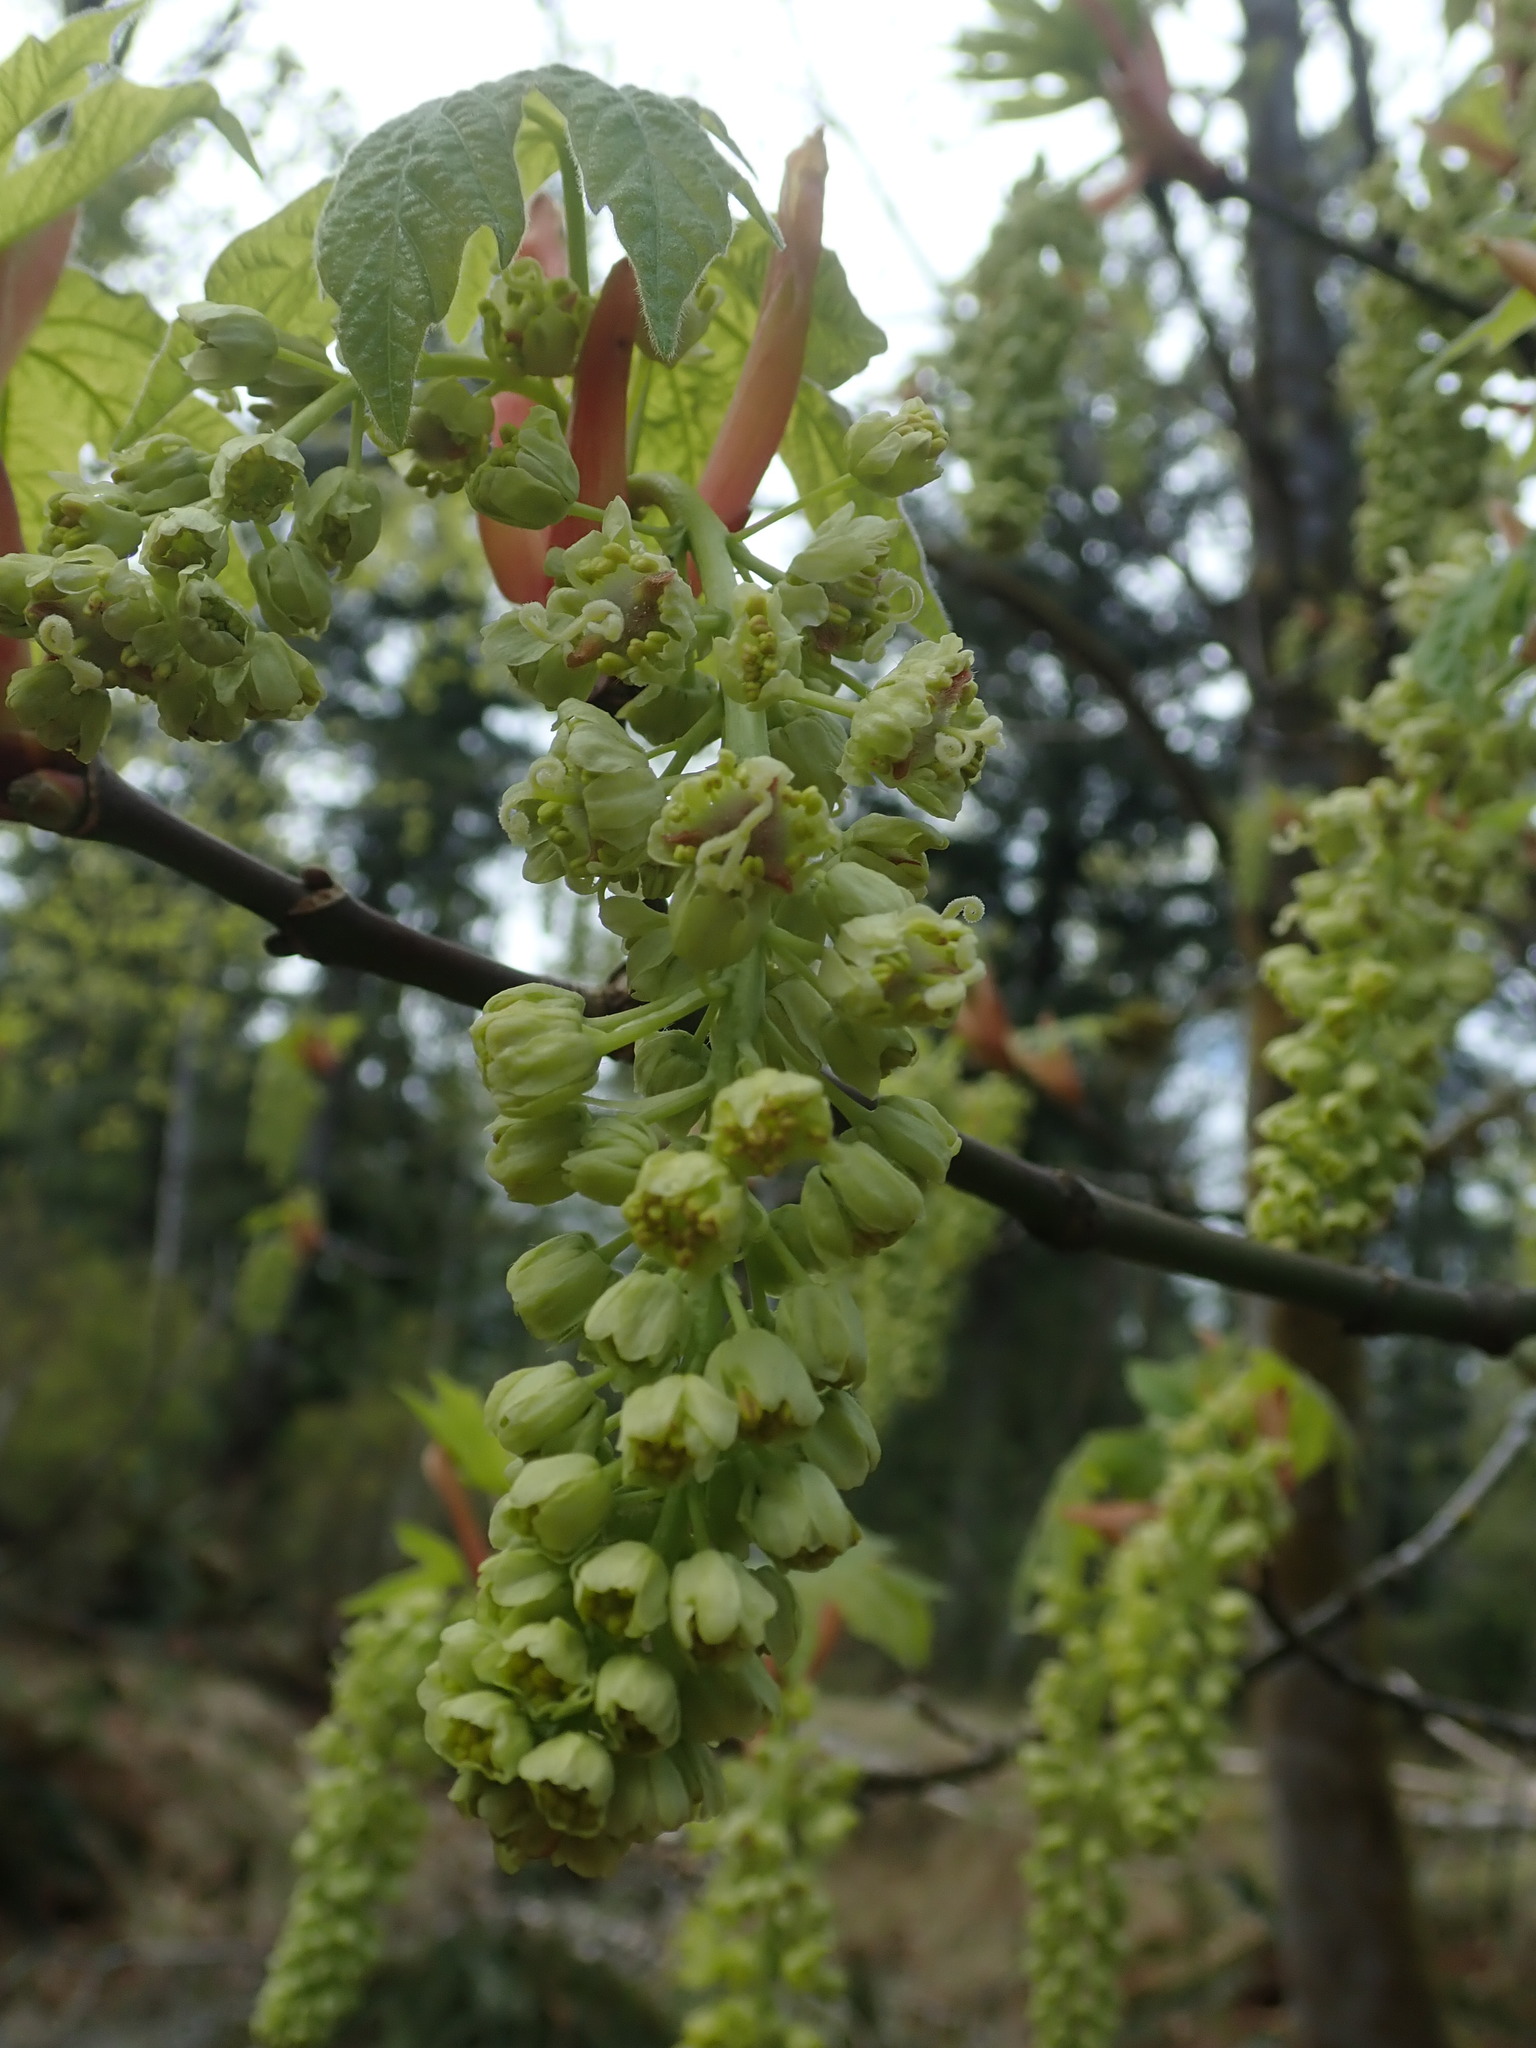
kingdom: Plantae
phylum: Tracheophyta
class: Magnoliopsida
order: Sapindales
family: Sapindaceae
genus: Acer
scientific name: Acer macrophyllum
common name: Oregon maple
